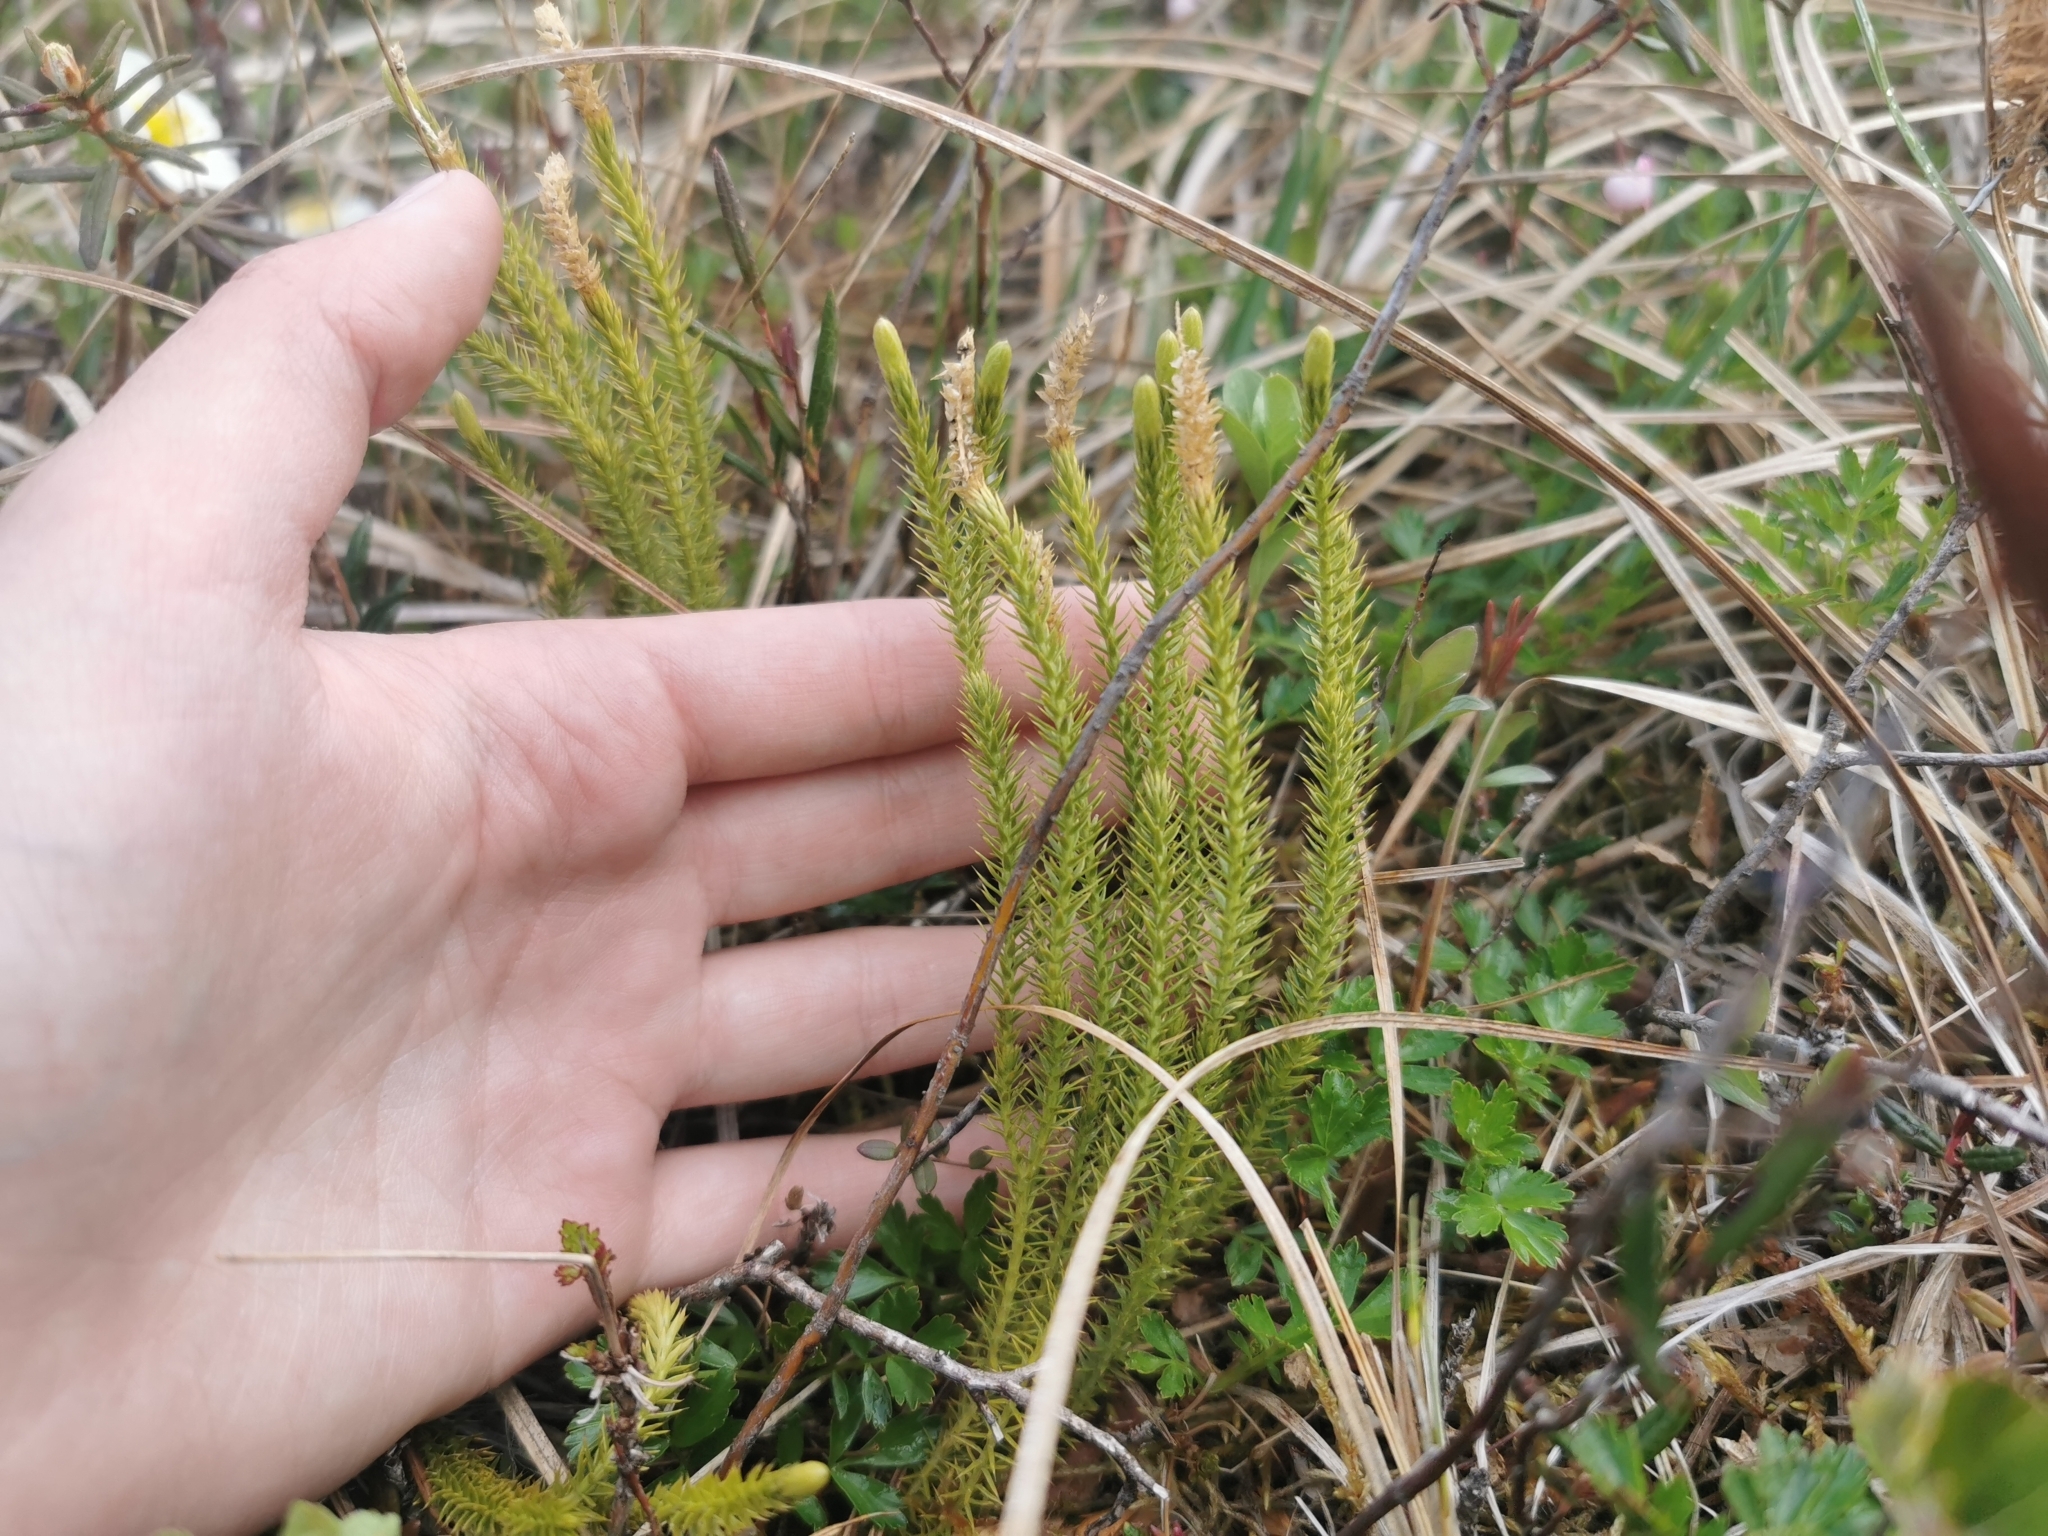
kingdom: Plantae
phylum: Tracheophyta
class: Lycopodiopsida
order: Lycopodiales
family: Lycopodiaceae
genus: Spinulum
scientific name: Spinulum annotinum
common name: Interrupted club-moss
